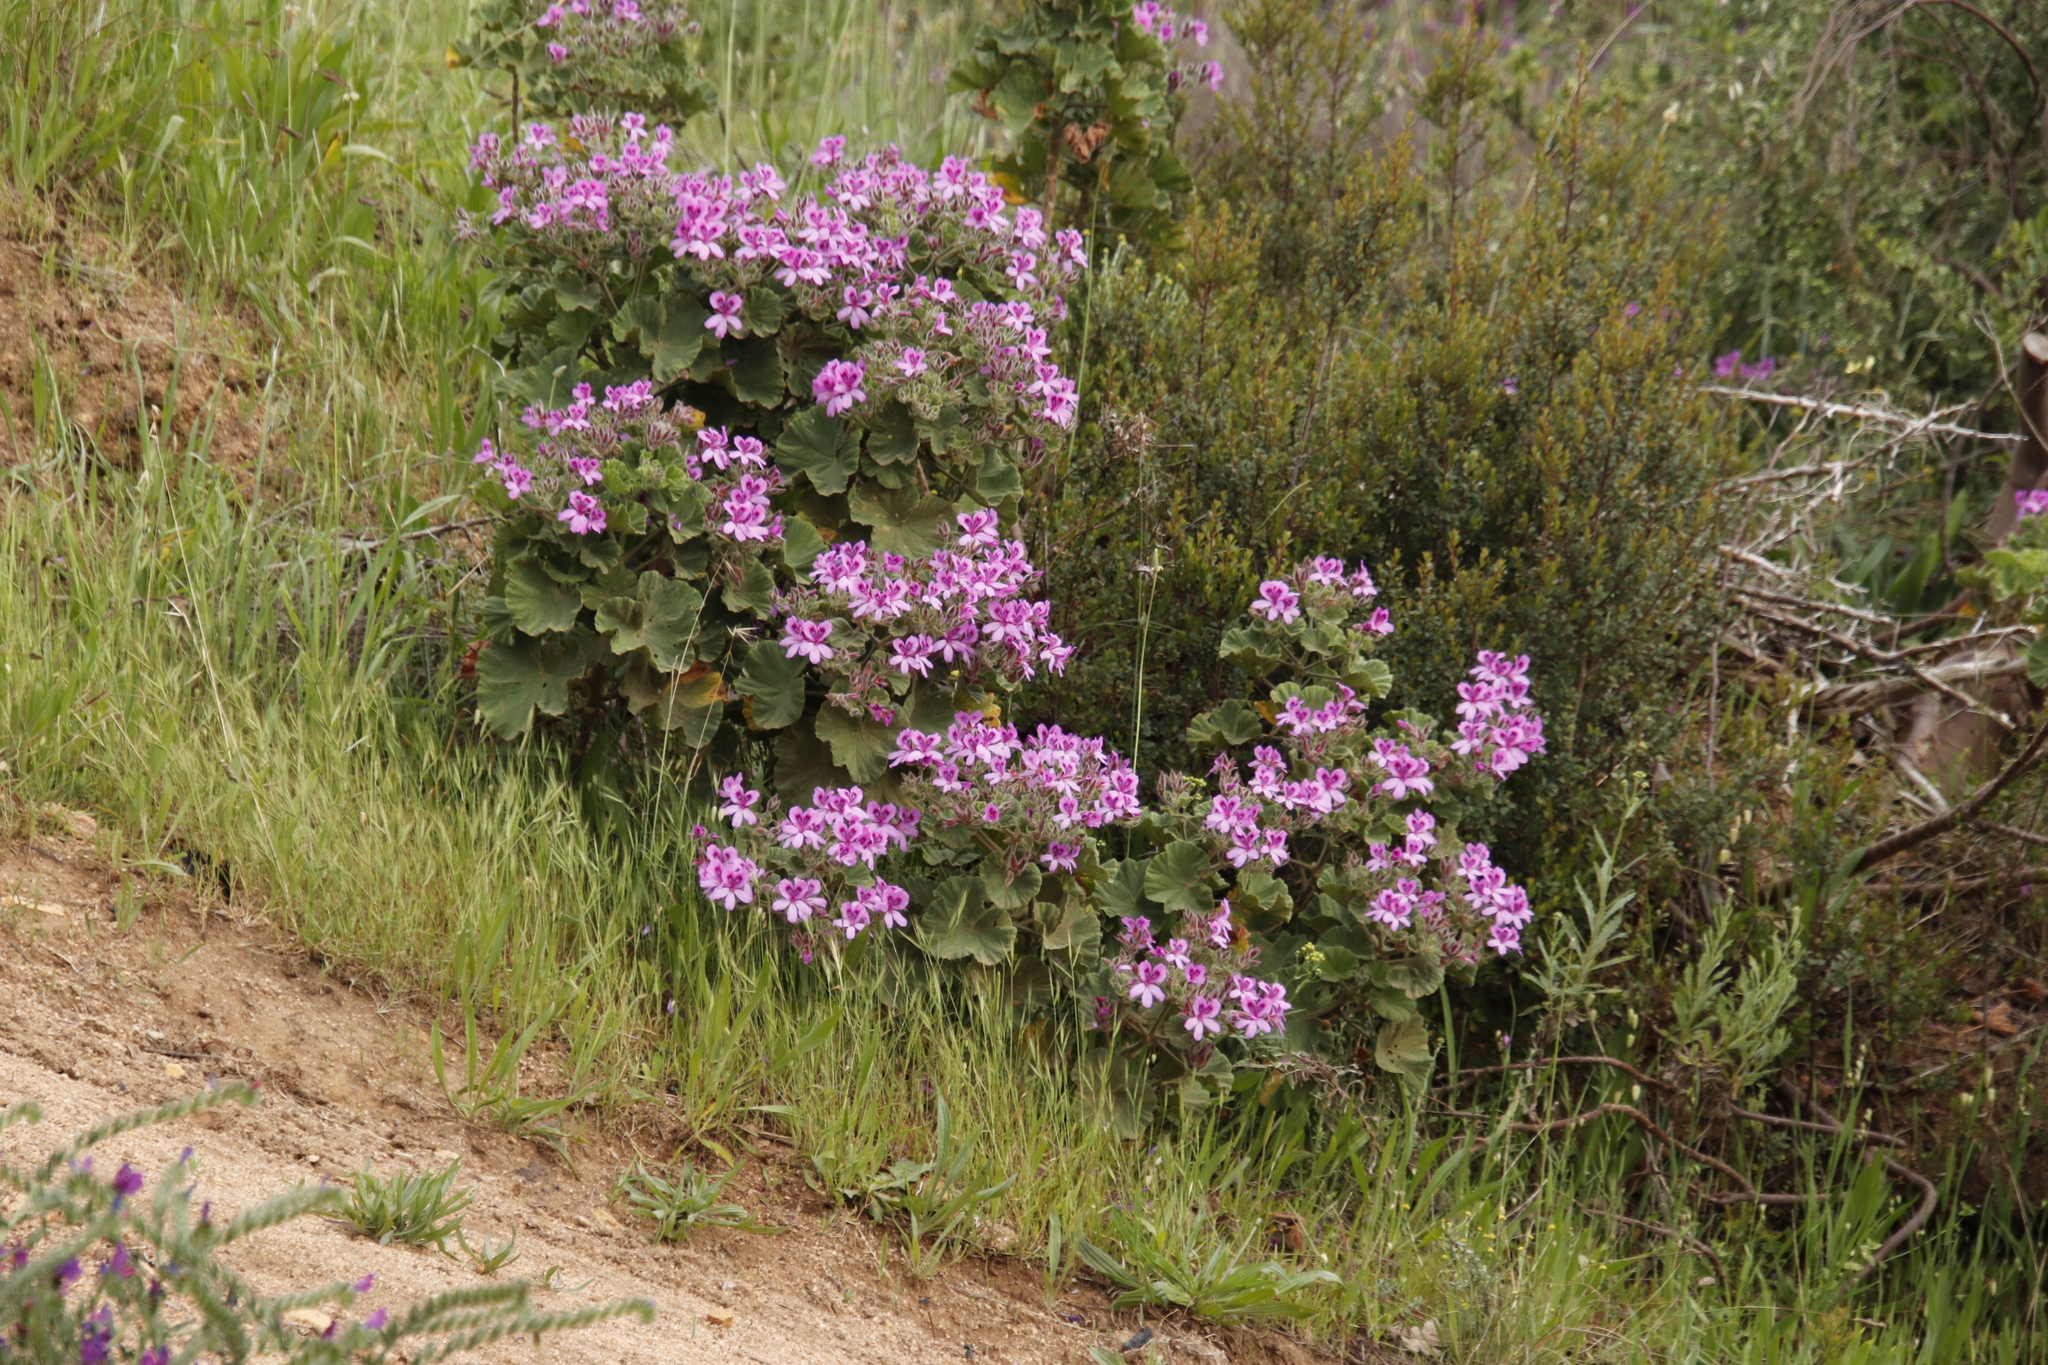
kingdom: Plantae
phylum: Tracheophyta
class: Magnoliopsida
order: Geraniales
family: Geraniaceae
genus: Pelargonium
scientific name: Pelargonium cucullatum
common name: Tree pelargonium
